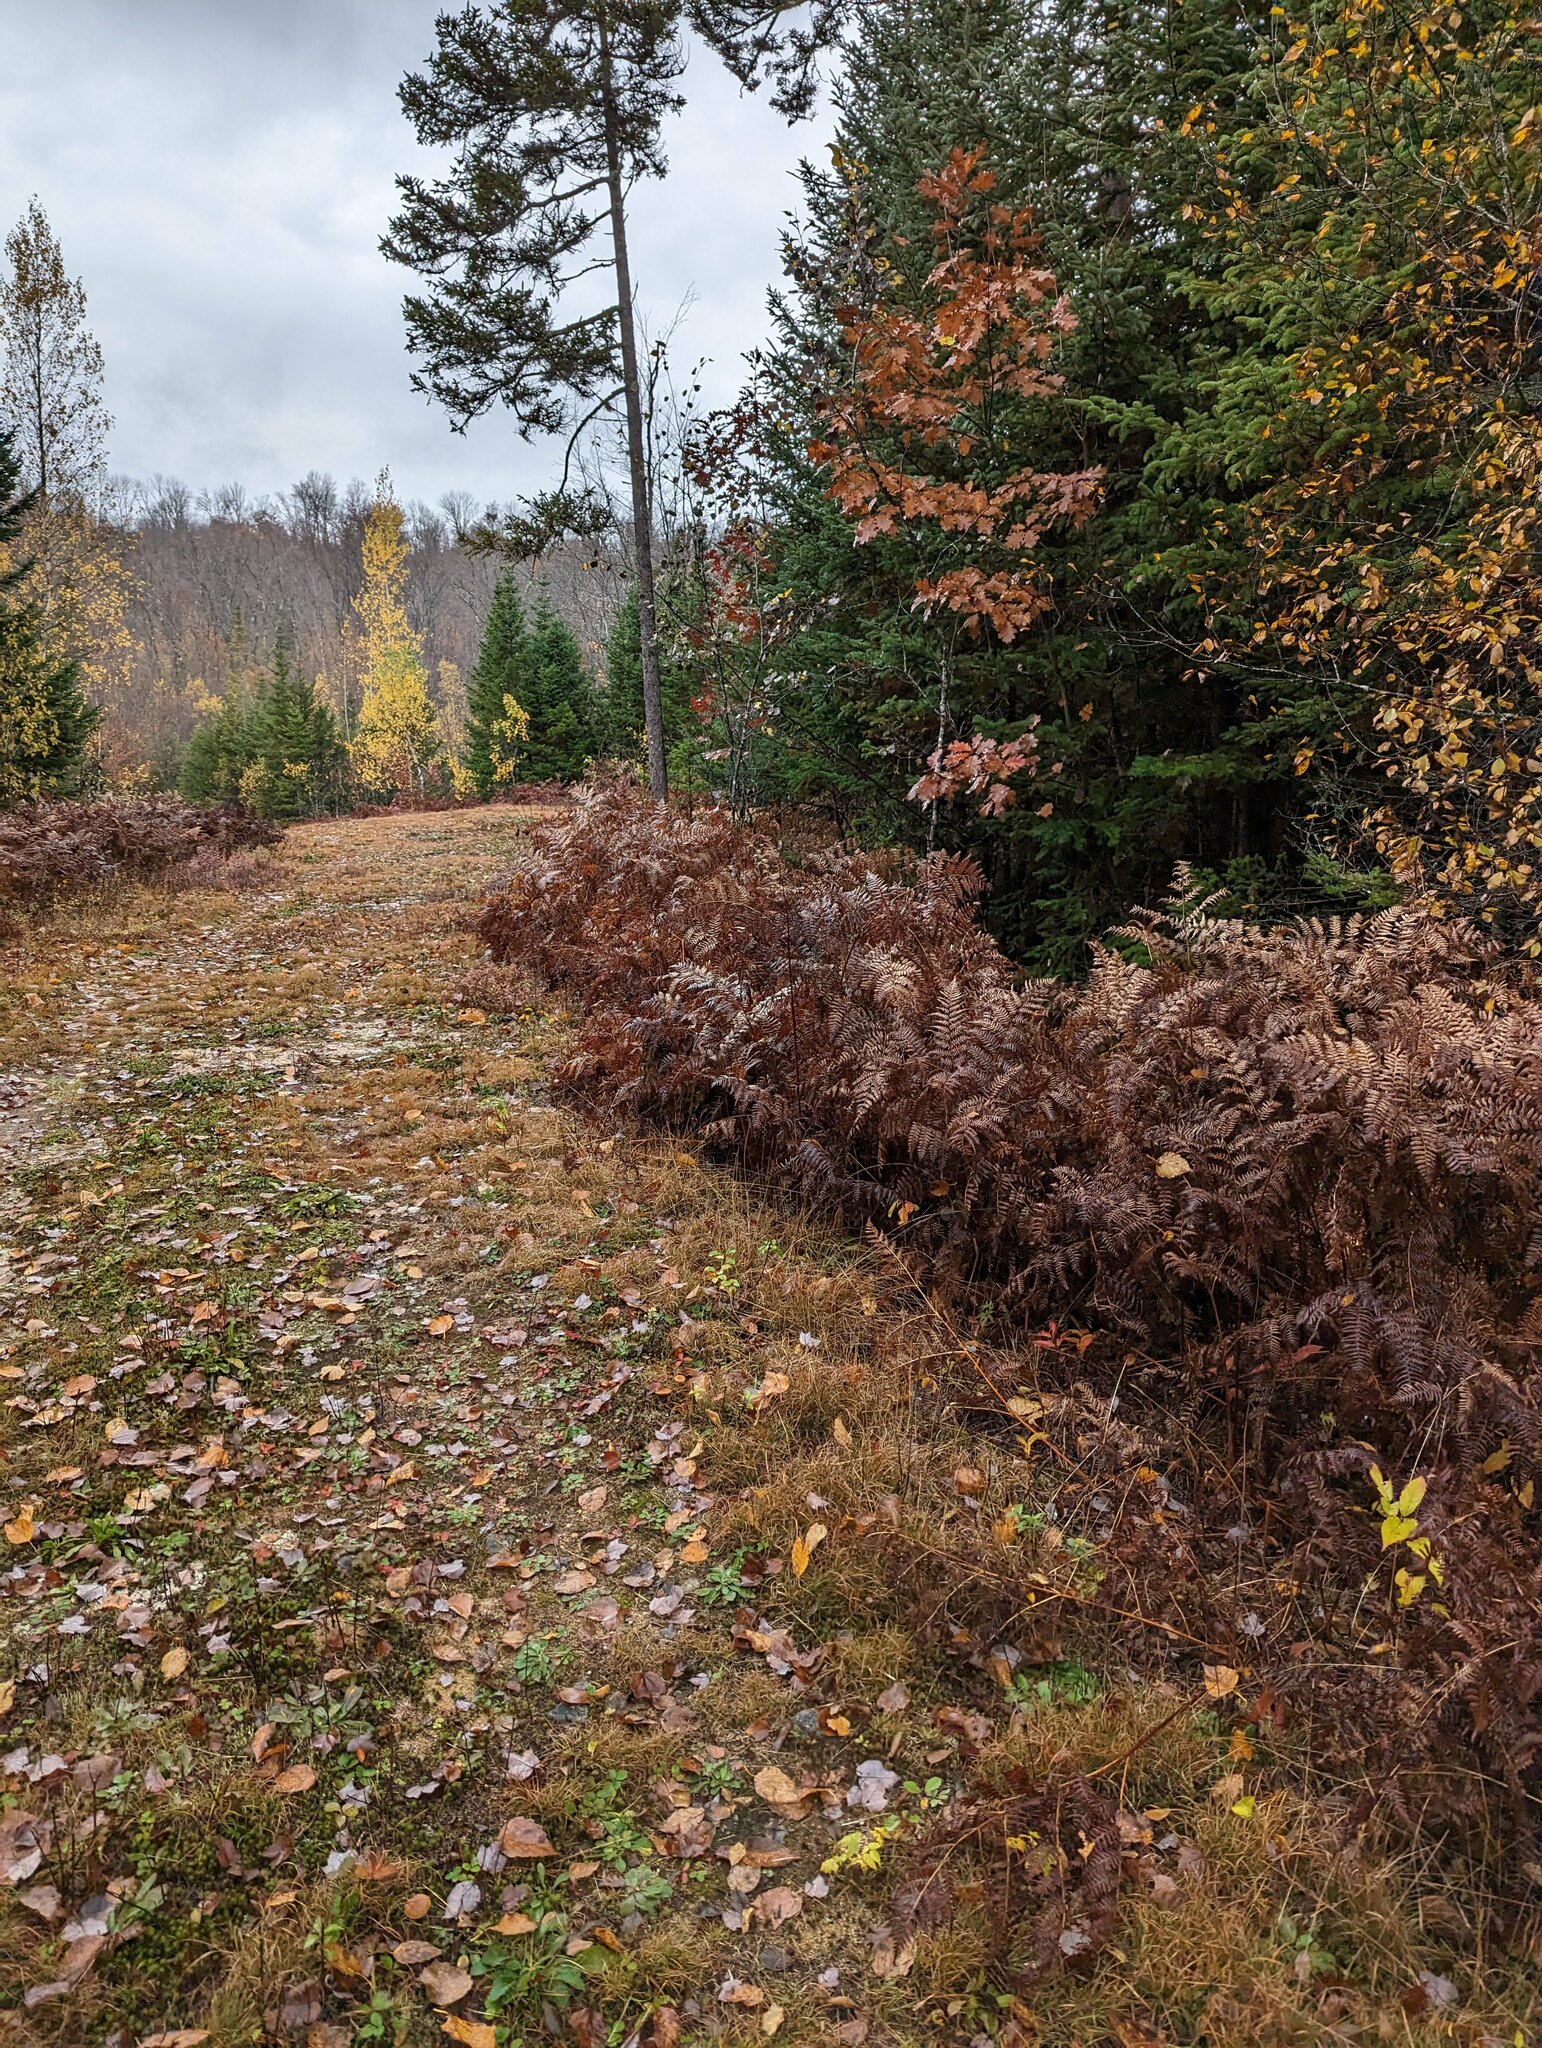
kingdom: Plantae
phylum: Tracheophyta
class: Polypodiopsida
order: Polypodiales
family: Dennstaedtiaceae
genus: Pteridium
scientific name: Pteridium aquilinum
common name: Bracken
